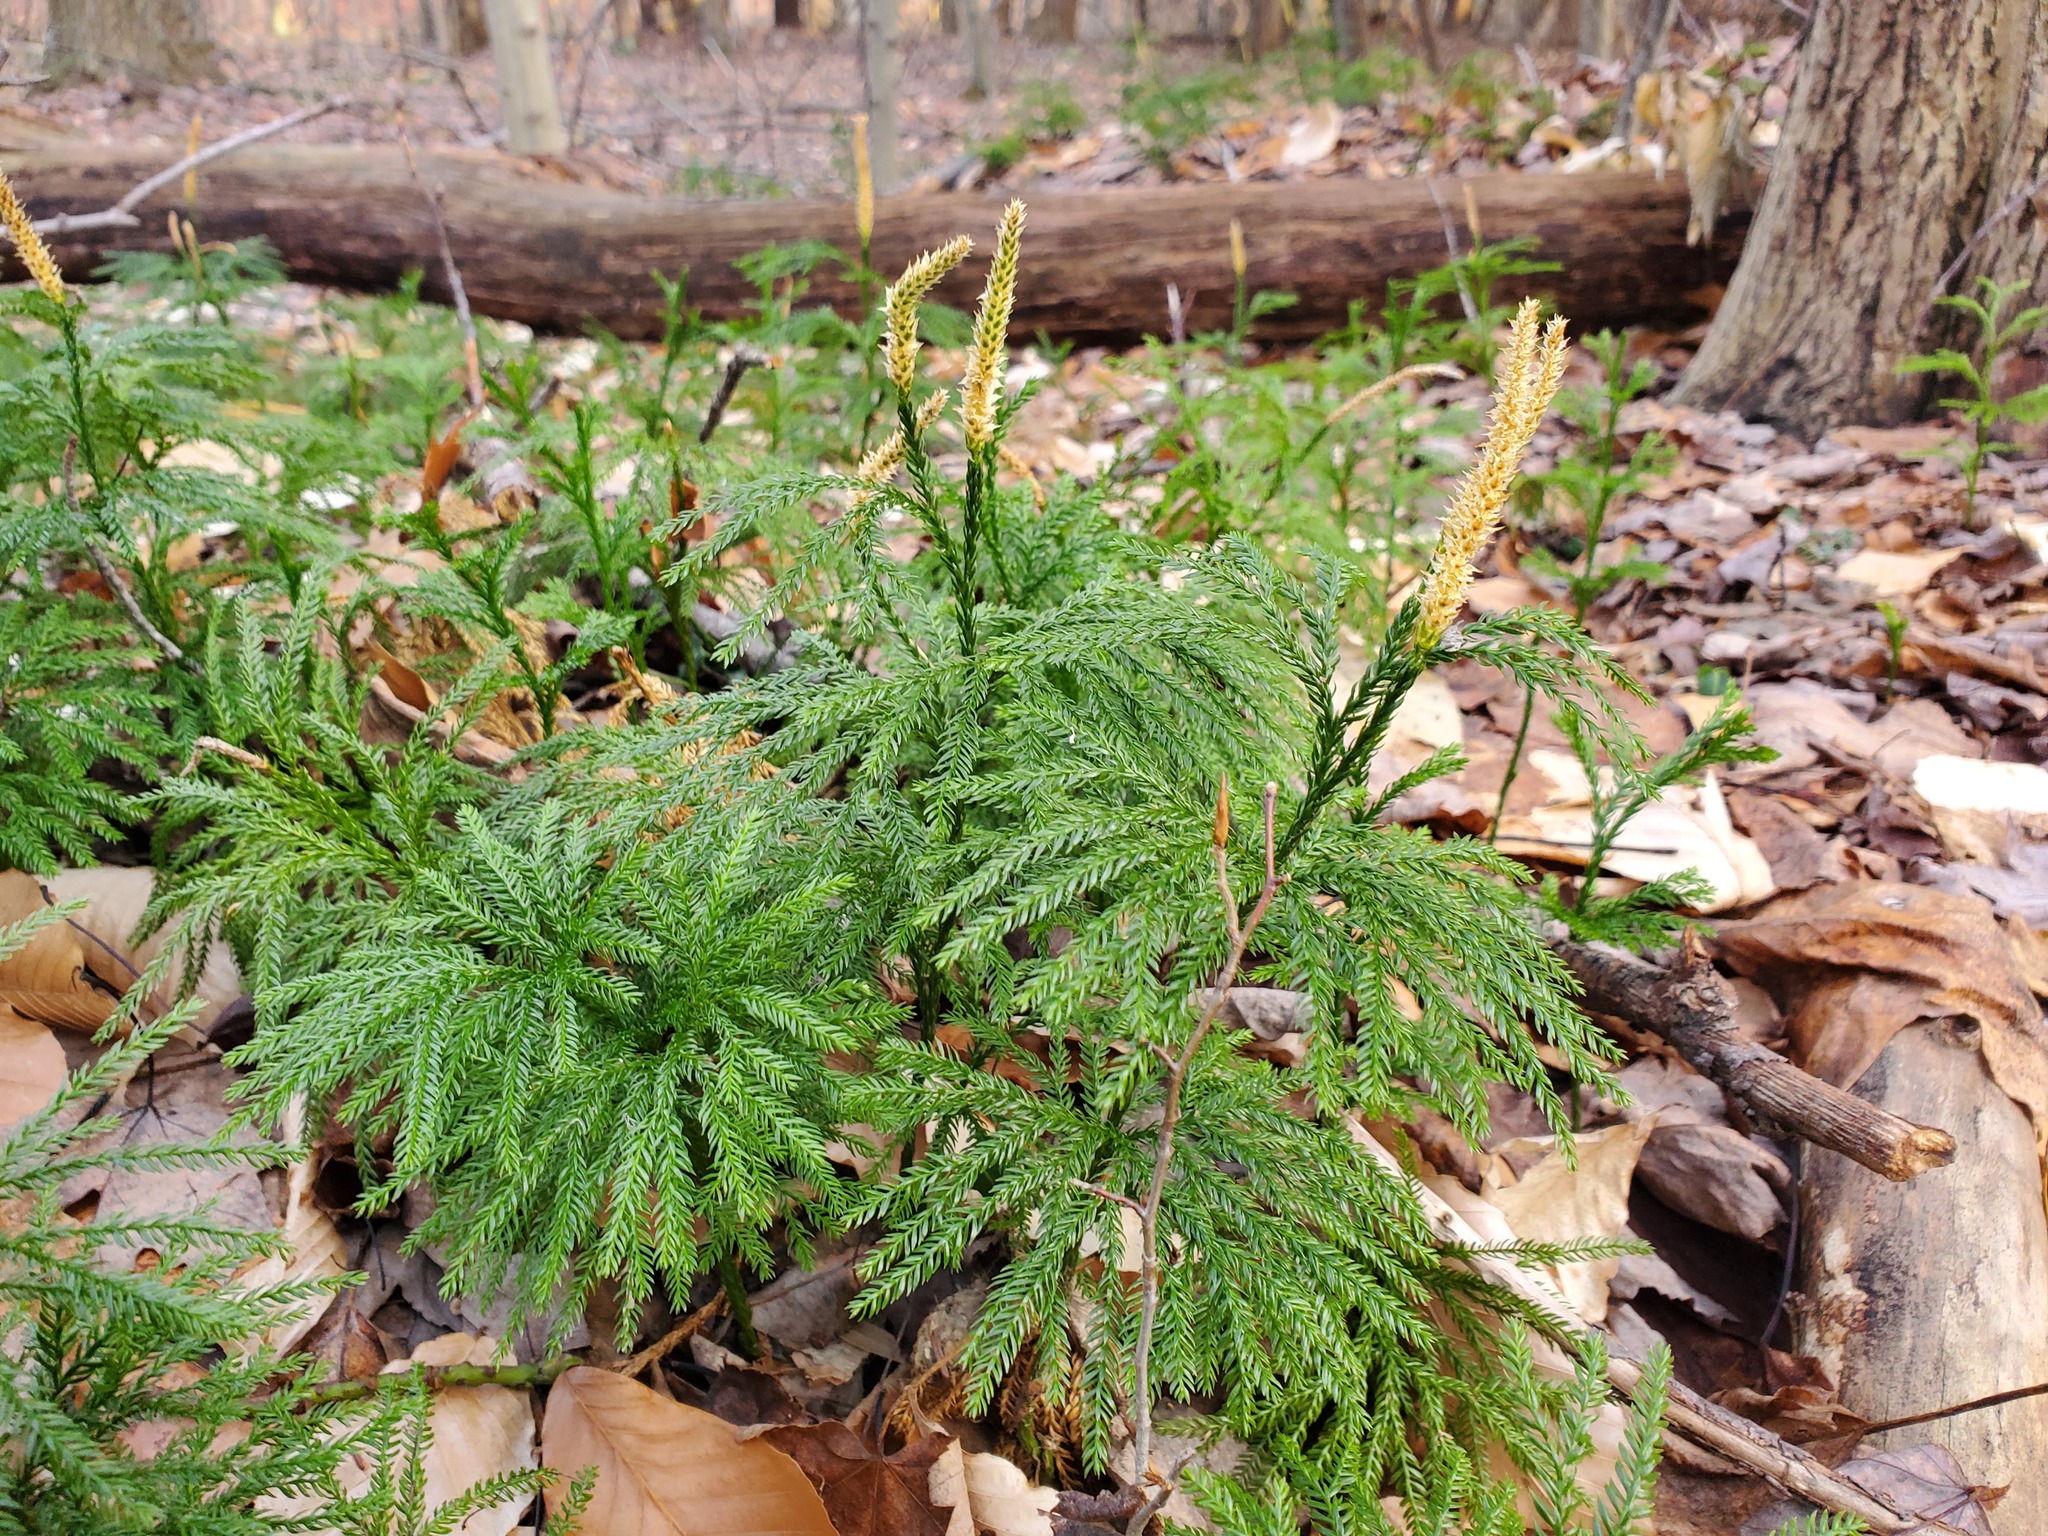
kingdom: Plantae
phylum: Tracheophyta
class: Lycopodiopsida
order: Lycopodiales
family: Lycopodiaceae
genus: Dendrolycopodium
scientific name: Dendrolycopodium obscurum
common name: Common ground-pine
